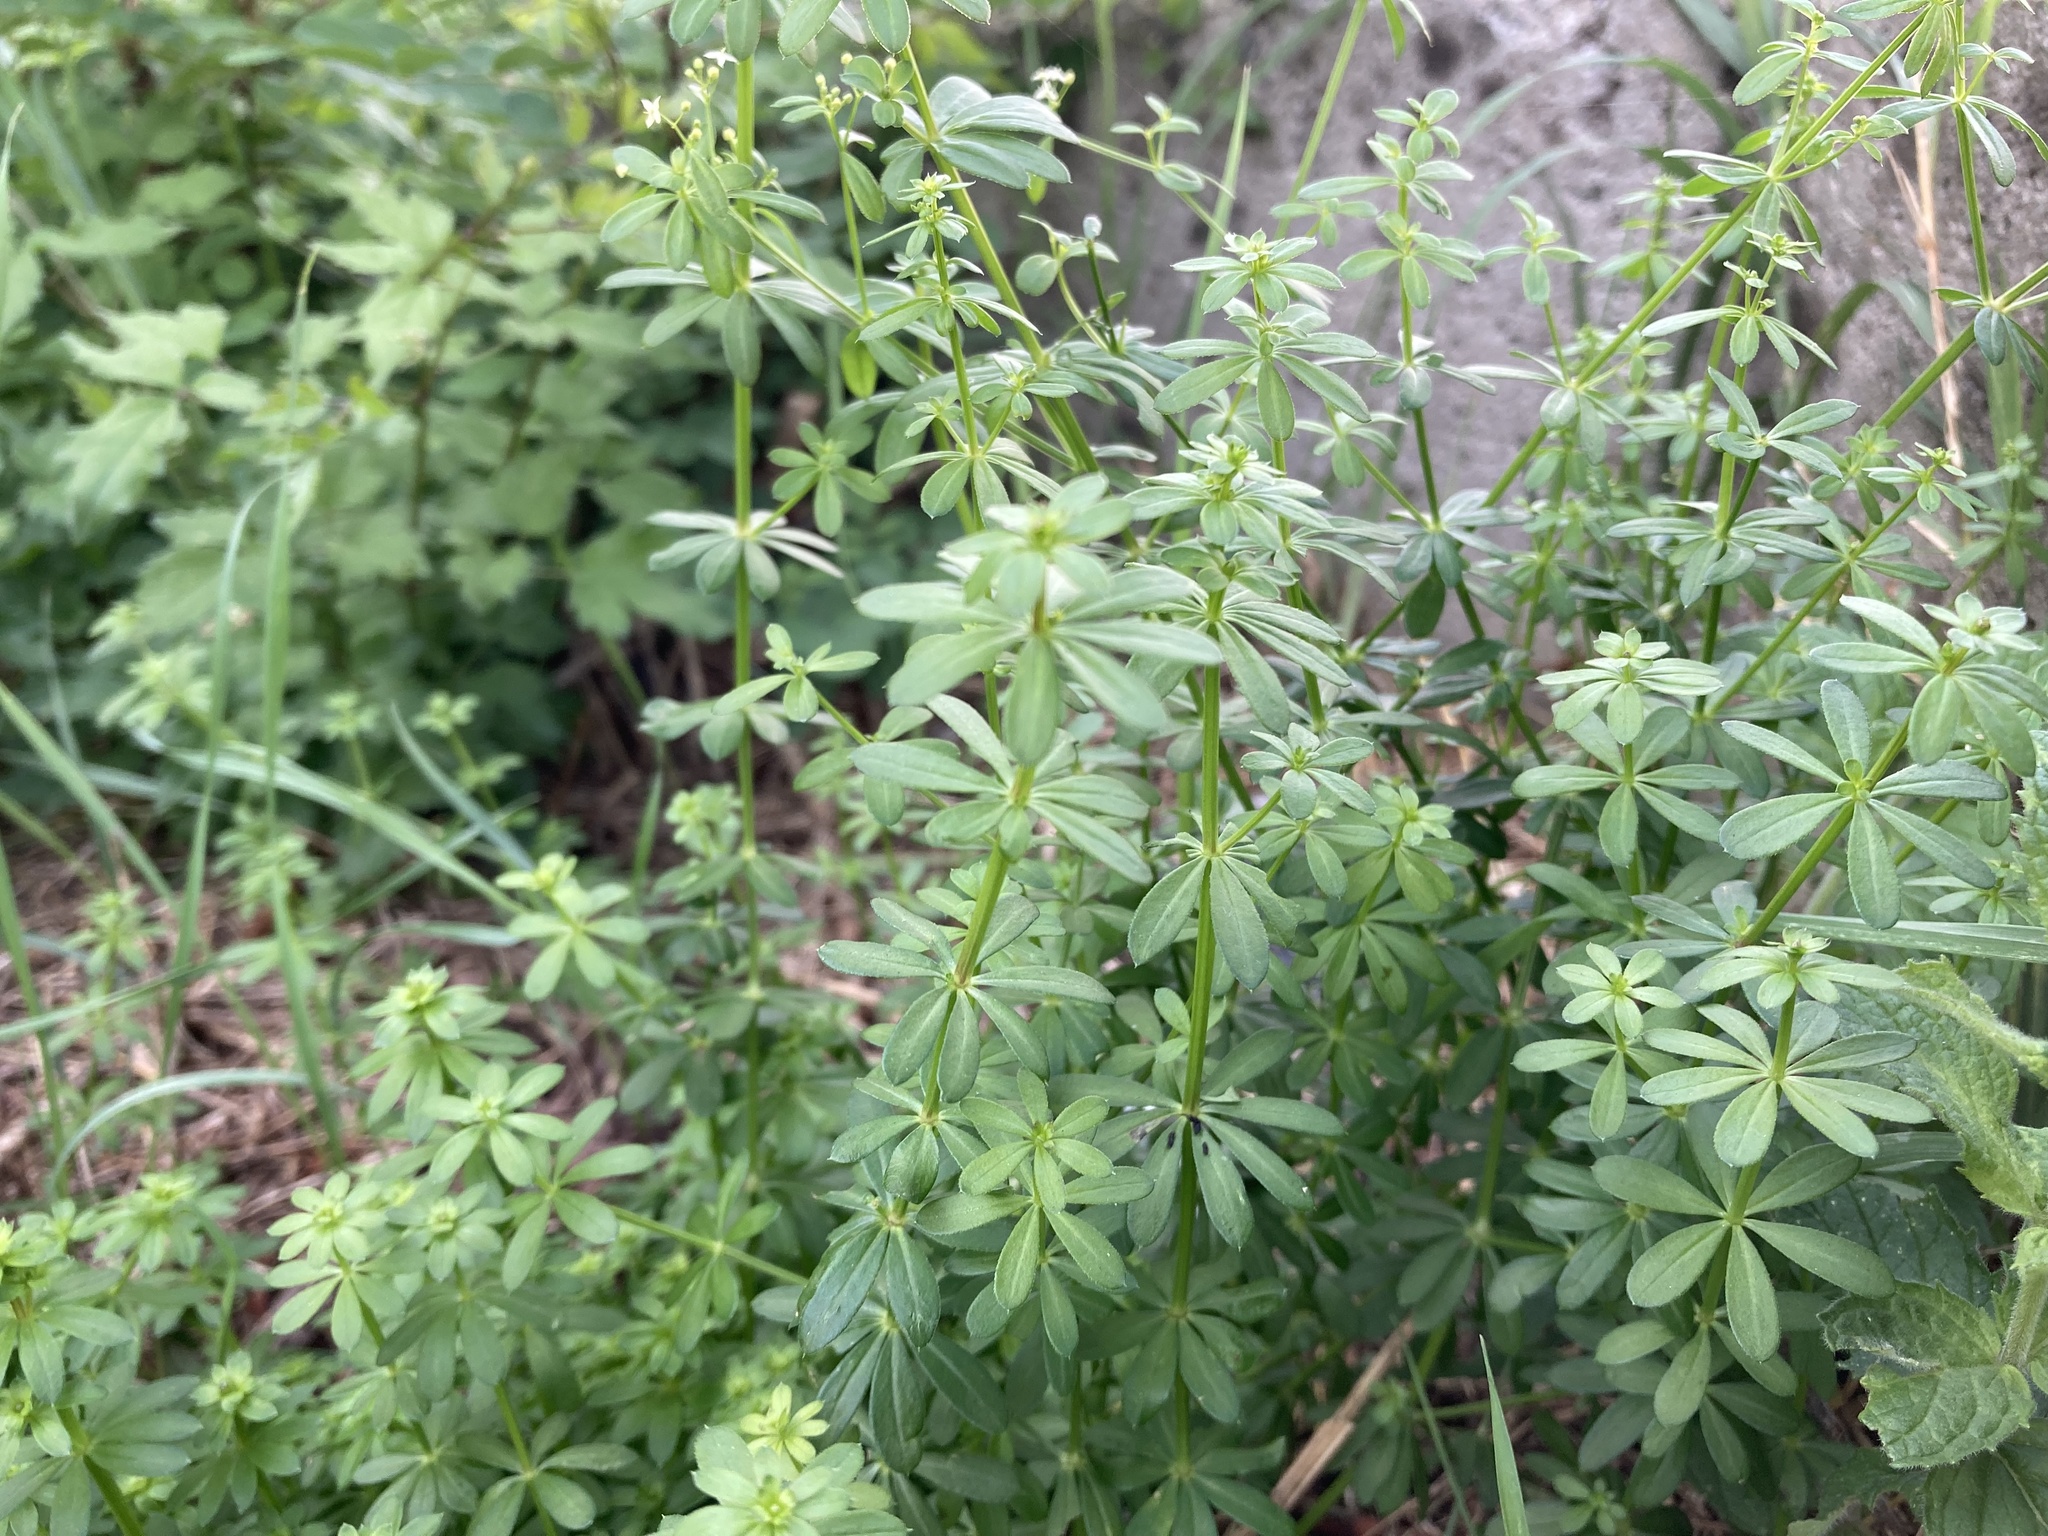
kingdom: Plantae
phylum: Tracheophyta
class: Magnoliopsida
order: Gentianales
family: Rubiaceae
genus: Galium
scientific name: Galium mollugo
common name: Hedge bedstraw
